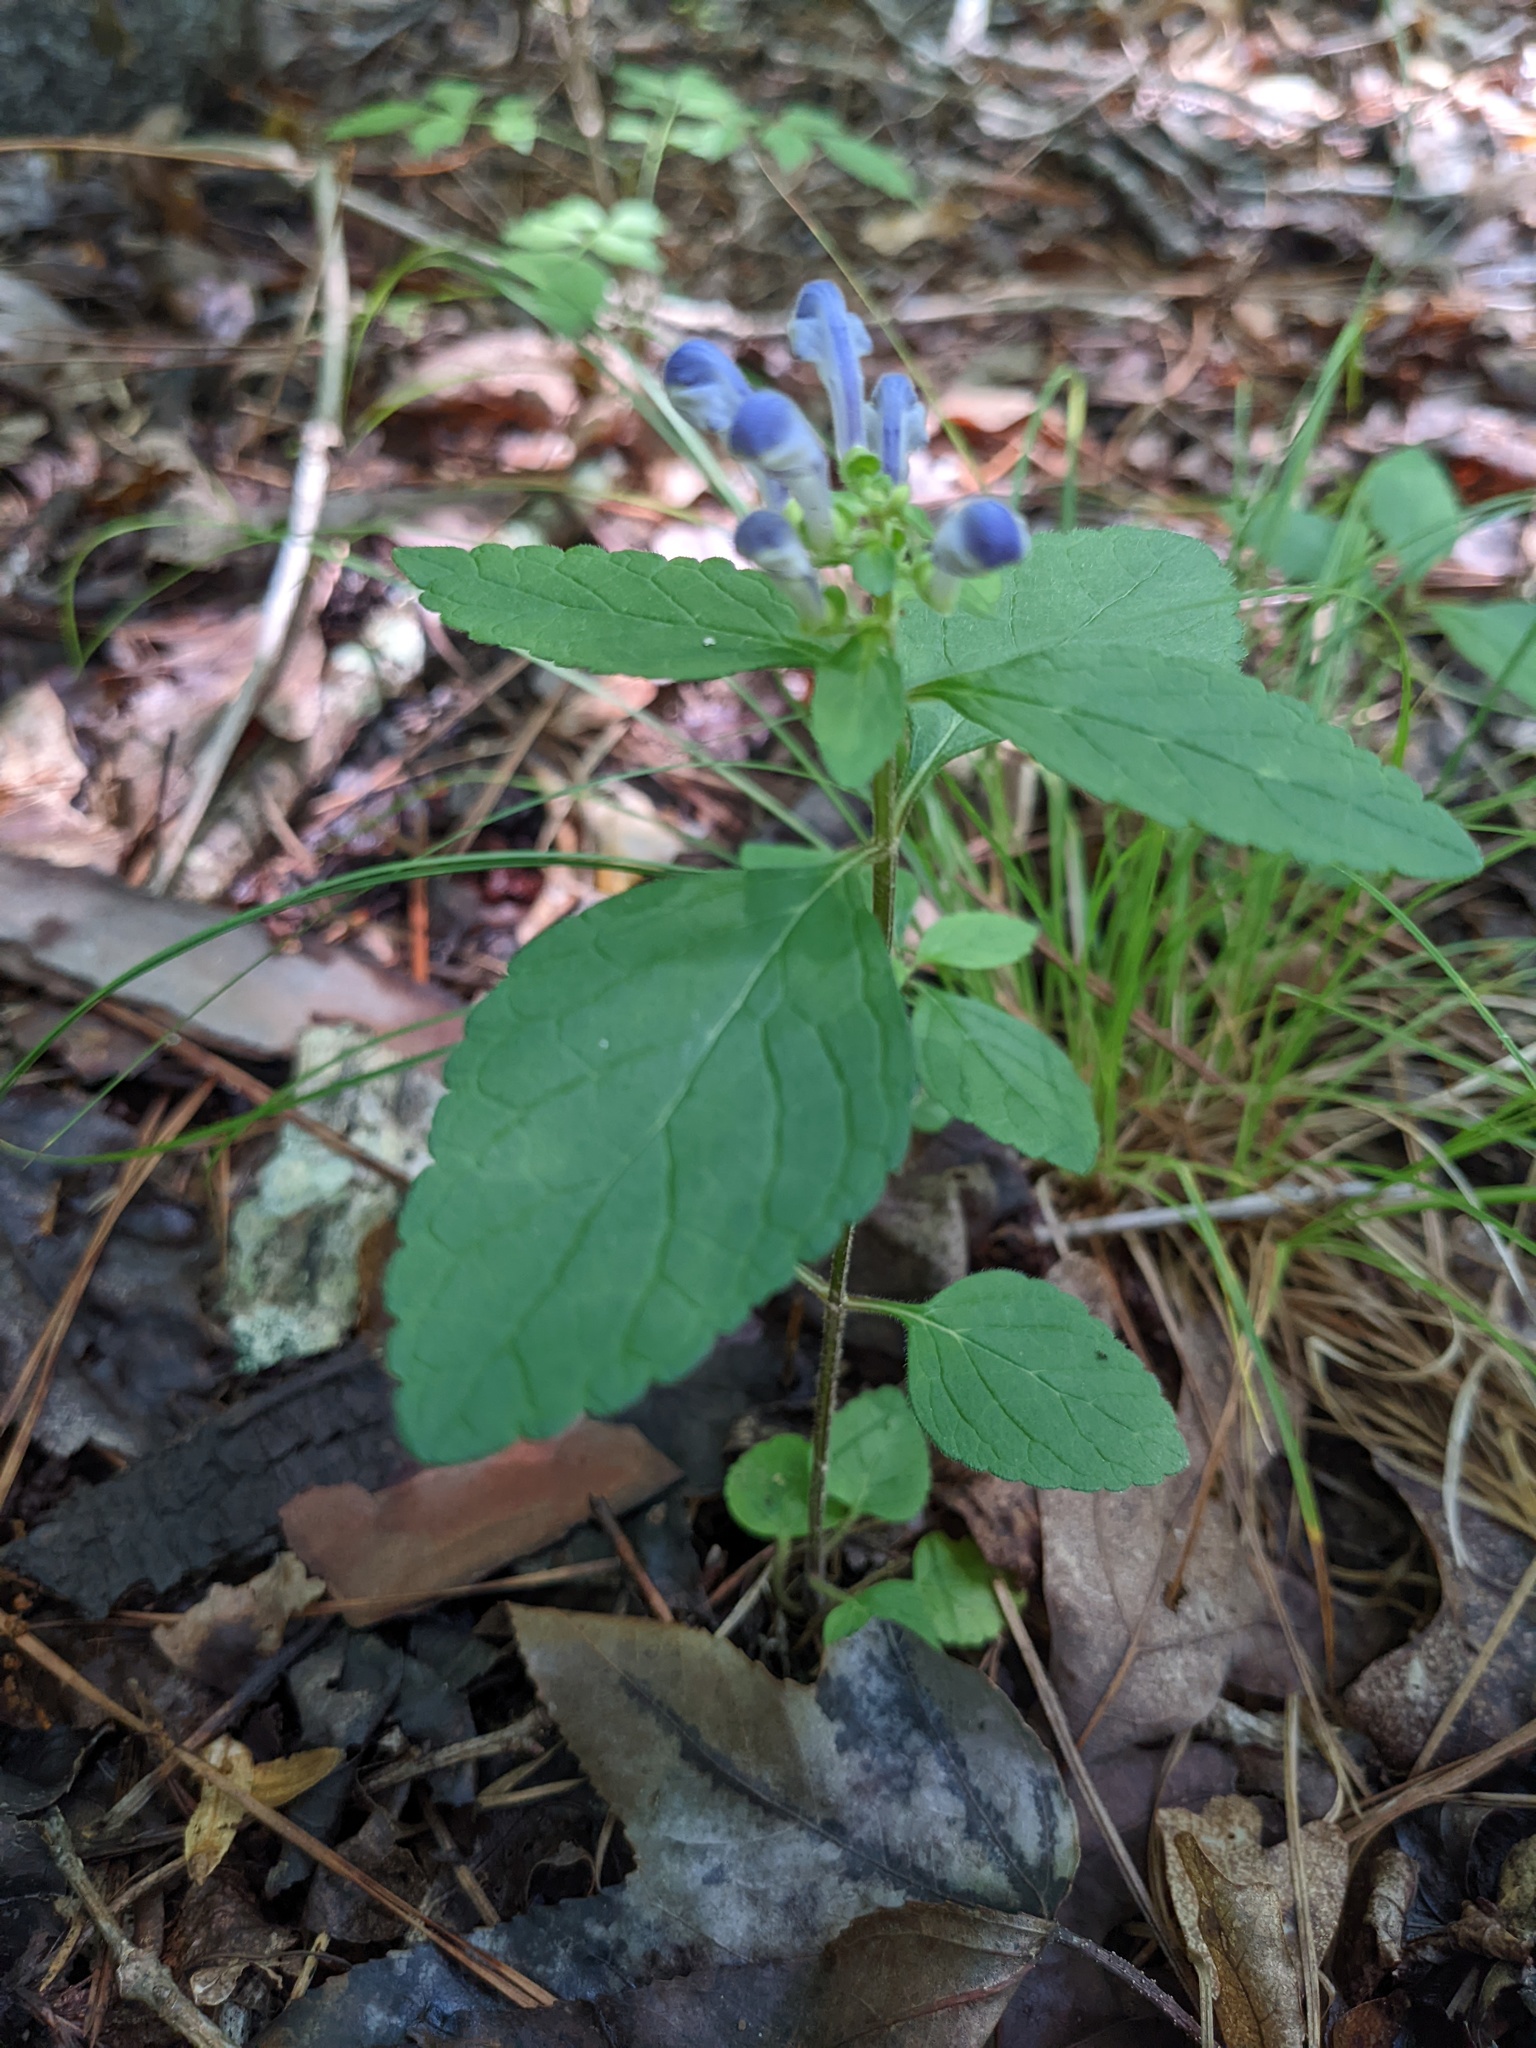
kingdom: Plantae
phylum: Tracheophyta
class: Magnoliopsida
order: Lamiales
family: Lamiaceae
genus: Scutellaria
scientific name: Scutellaria elliptica
